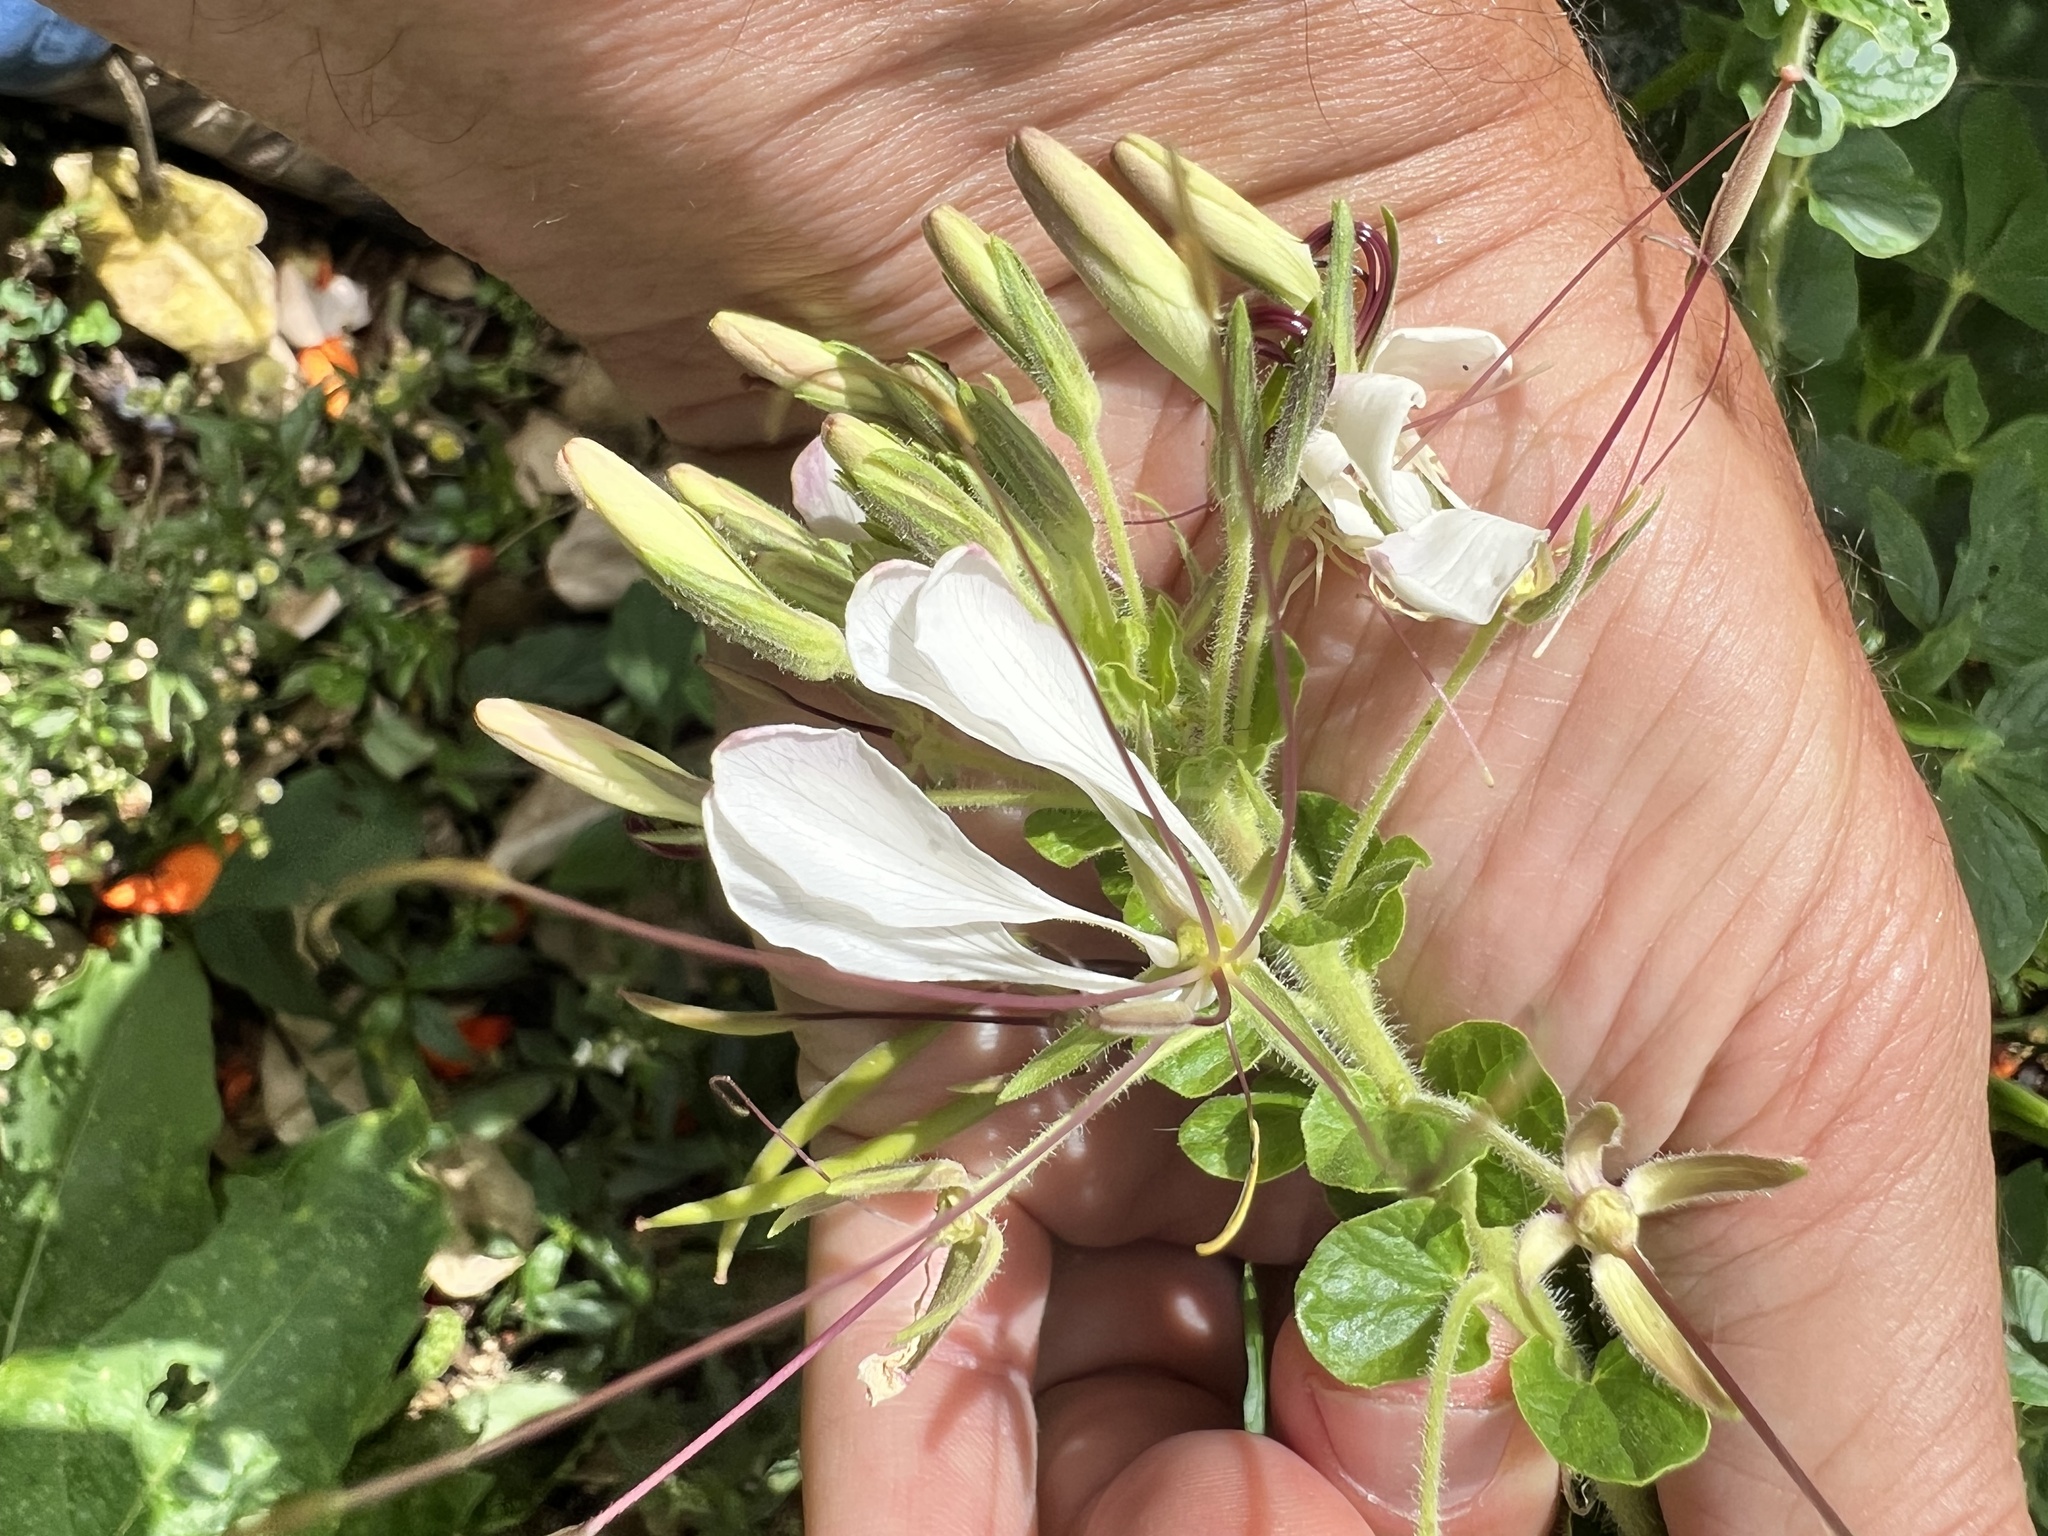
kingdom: Plantae
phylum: Tracheophyta
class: Magnoliopsida
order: Brassicales
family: Cleomaceae
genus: Cleoserrata
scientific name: Cleoserrata speciosa
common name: Volantines preciosos
